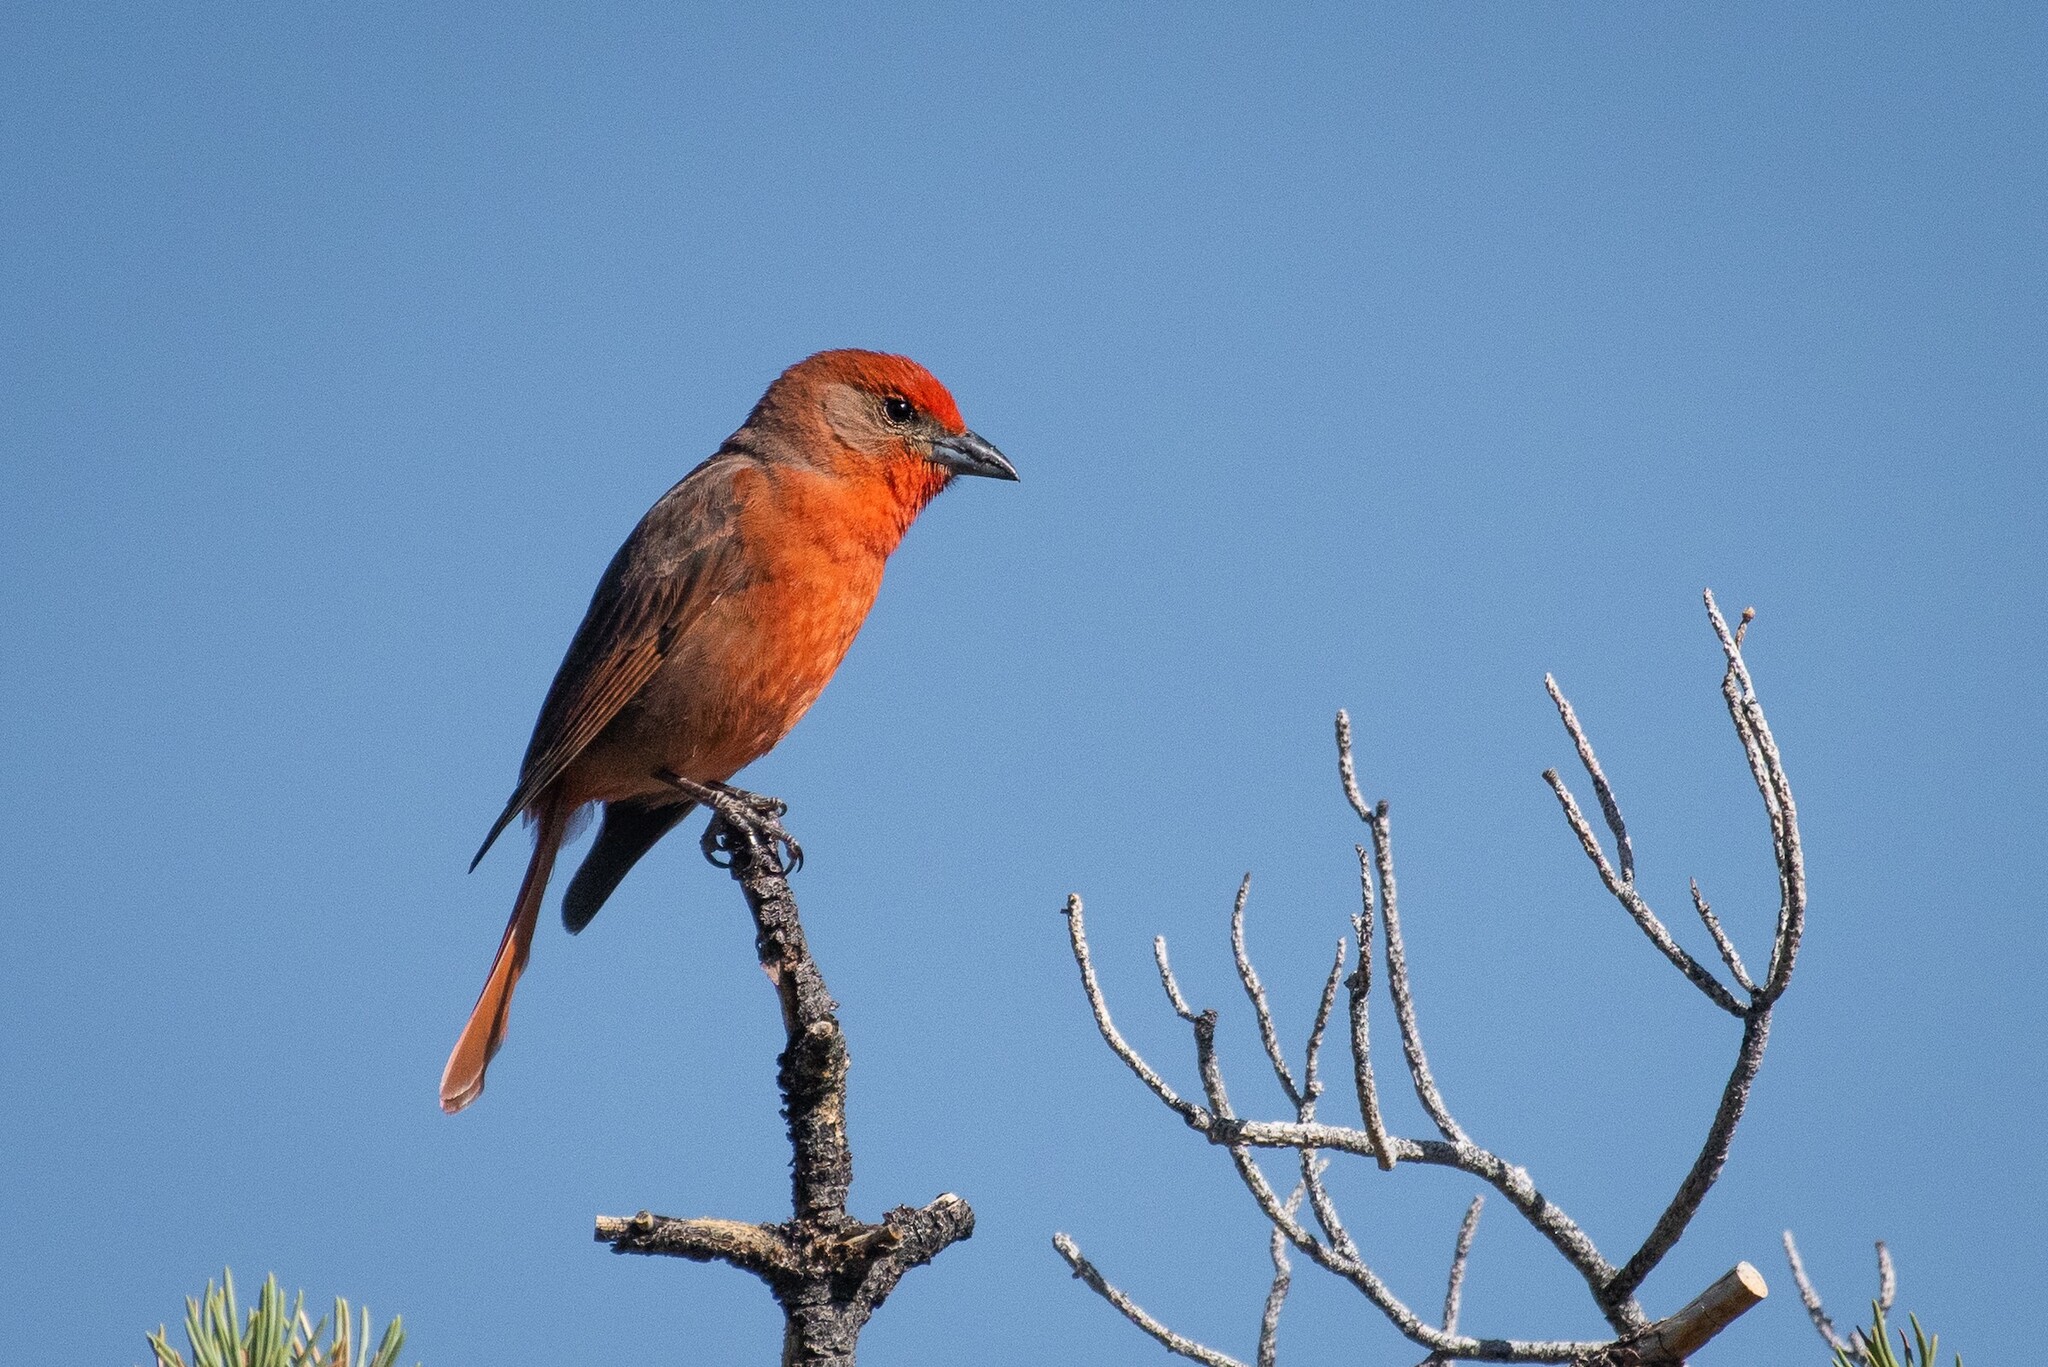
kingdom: Animalia
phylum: Chordata
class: Aves
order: Passeriformes
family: Cardinalidae
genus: Piranga
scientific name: Piranga flava
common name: Red tanager
